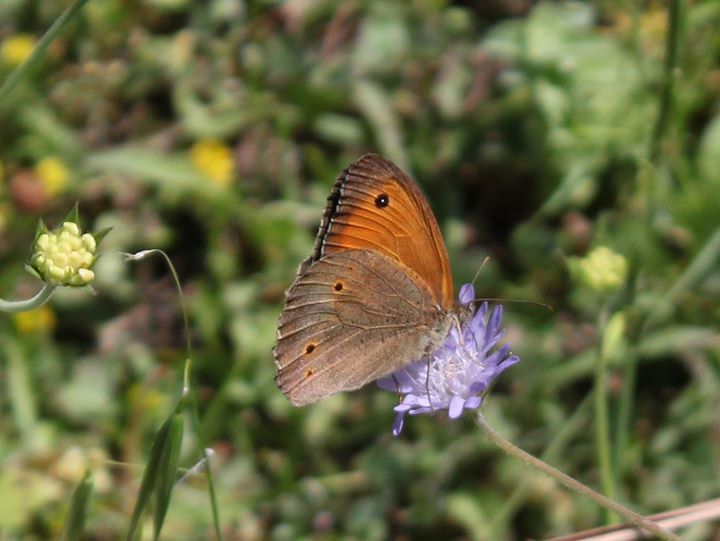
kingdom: Animalia
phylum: Arthropoda
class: Insecta
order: Lepidoptera
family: Nymphalidae
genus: Maniola
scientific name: Maniola jurtina
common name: Meadow brown
